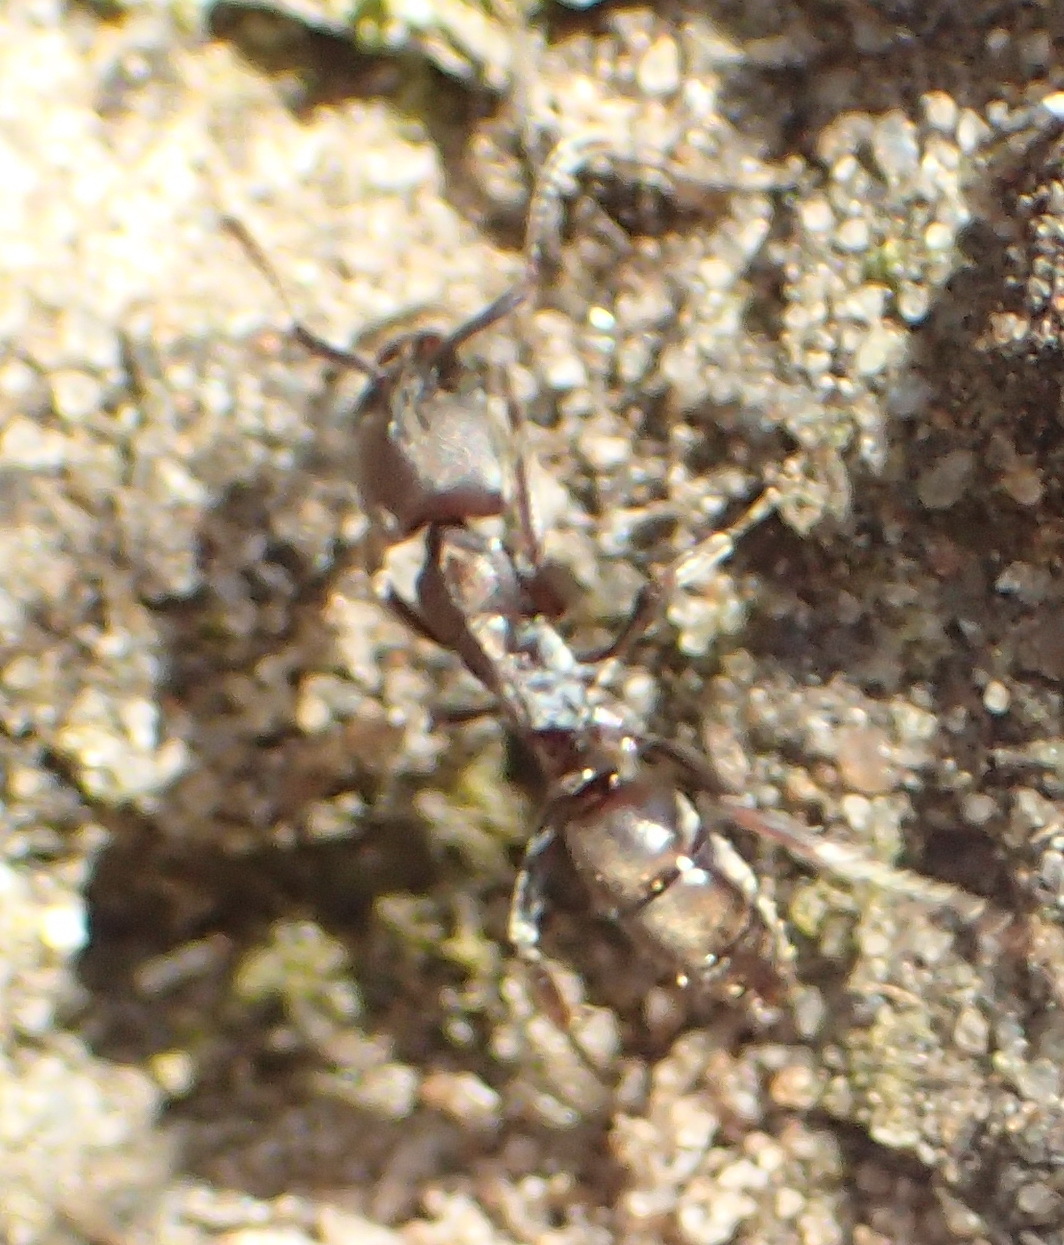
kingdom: Animalia
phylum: Arthropoda
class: Insecta
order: Hymenoptera
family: Formicidae
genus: Hagensia
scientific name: Hagensia
